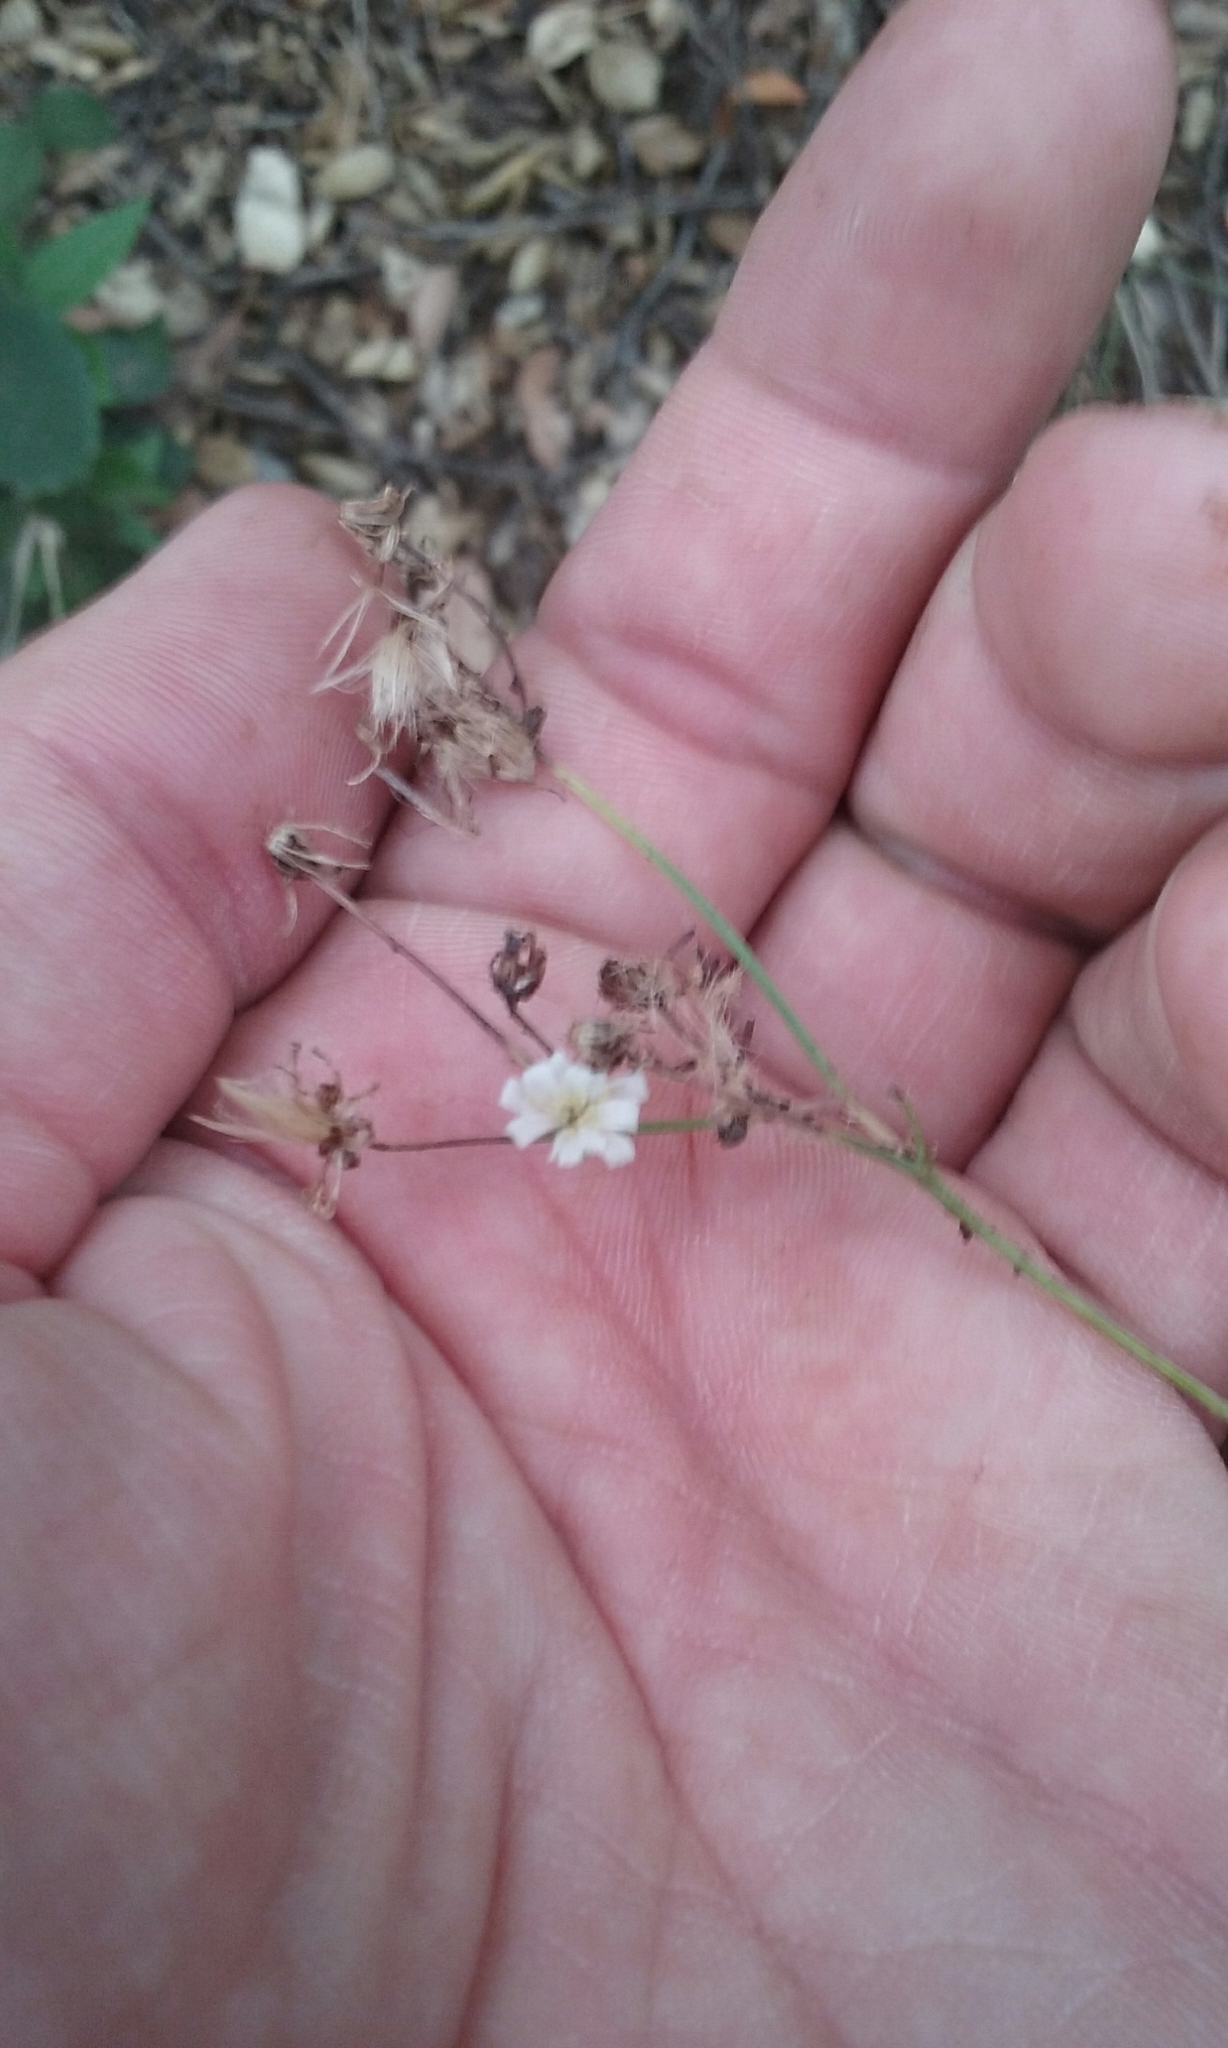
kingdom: Plantae
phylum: Tracheophyta
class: Magnoliopsida
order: Asterales
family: Asteraceae
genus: Hieracium
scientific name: Hieracium albiflorum
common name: White hawkweed
